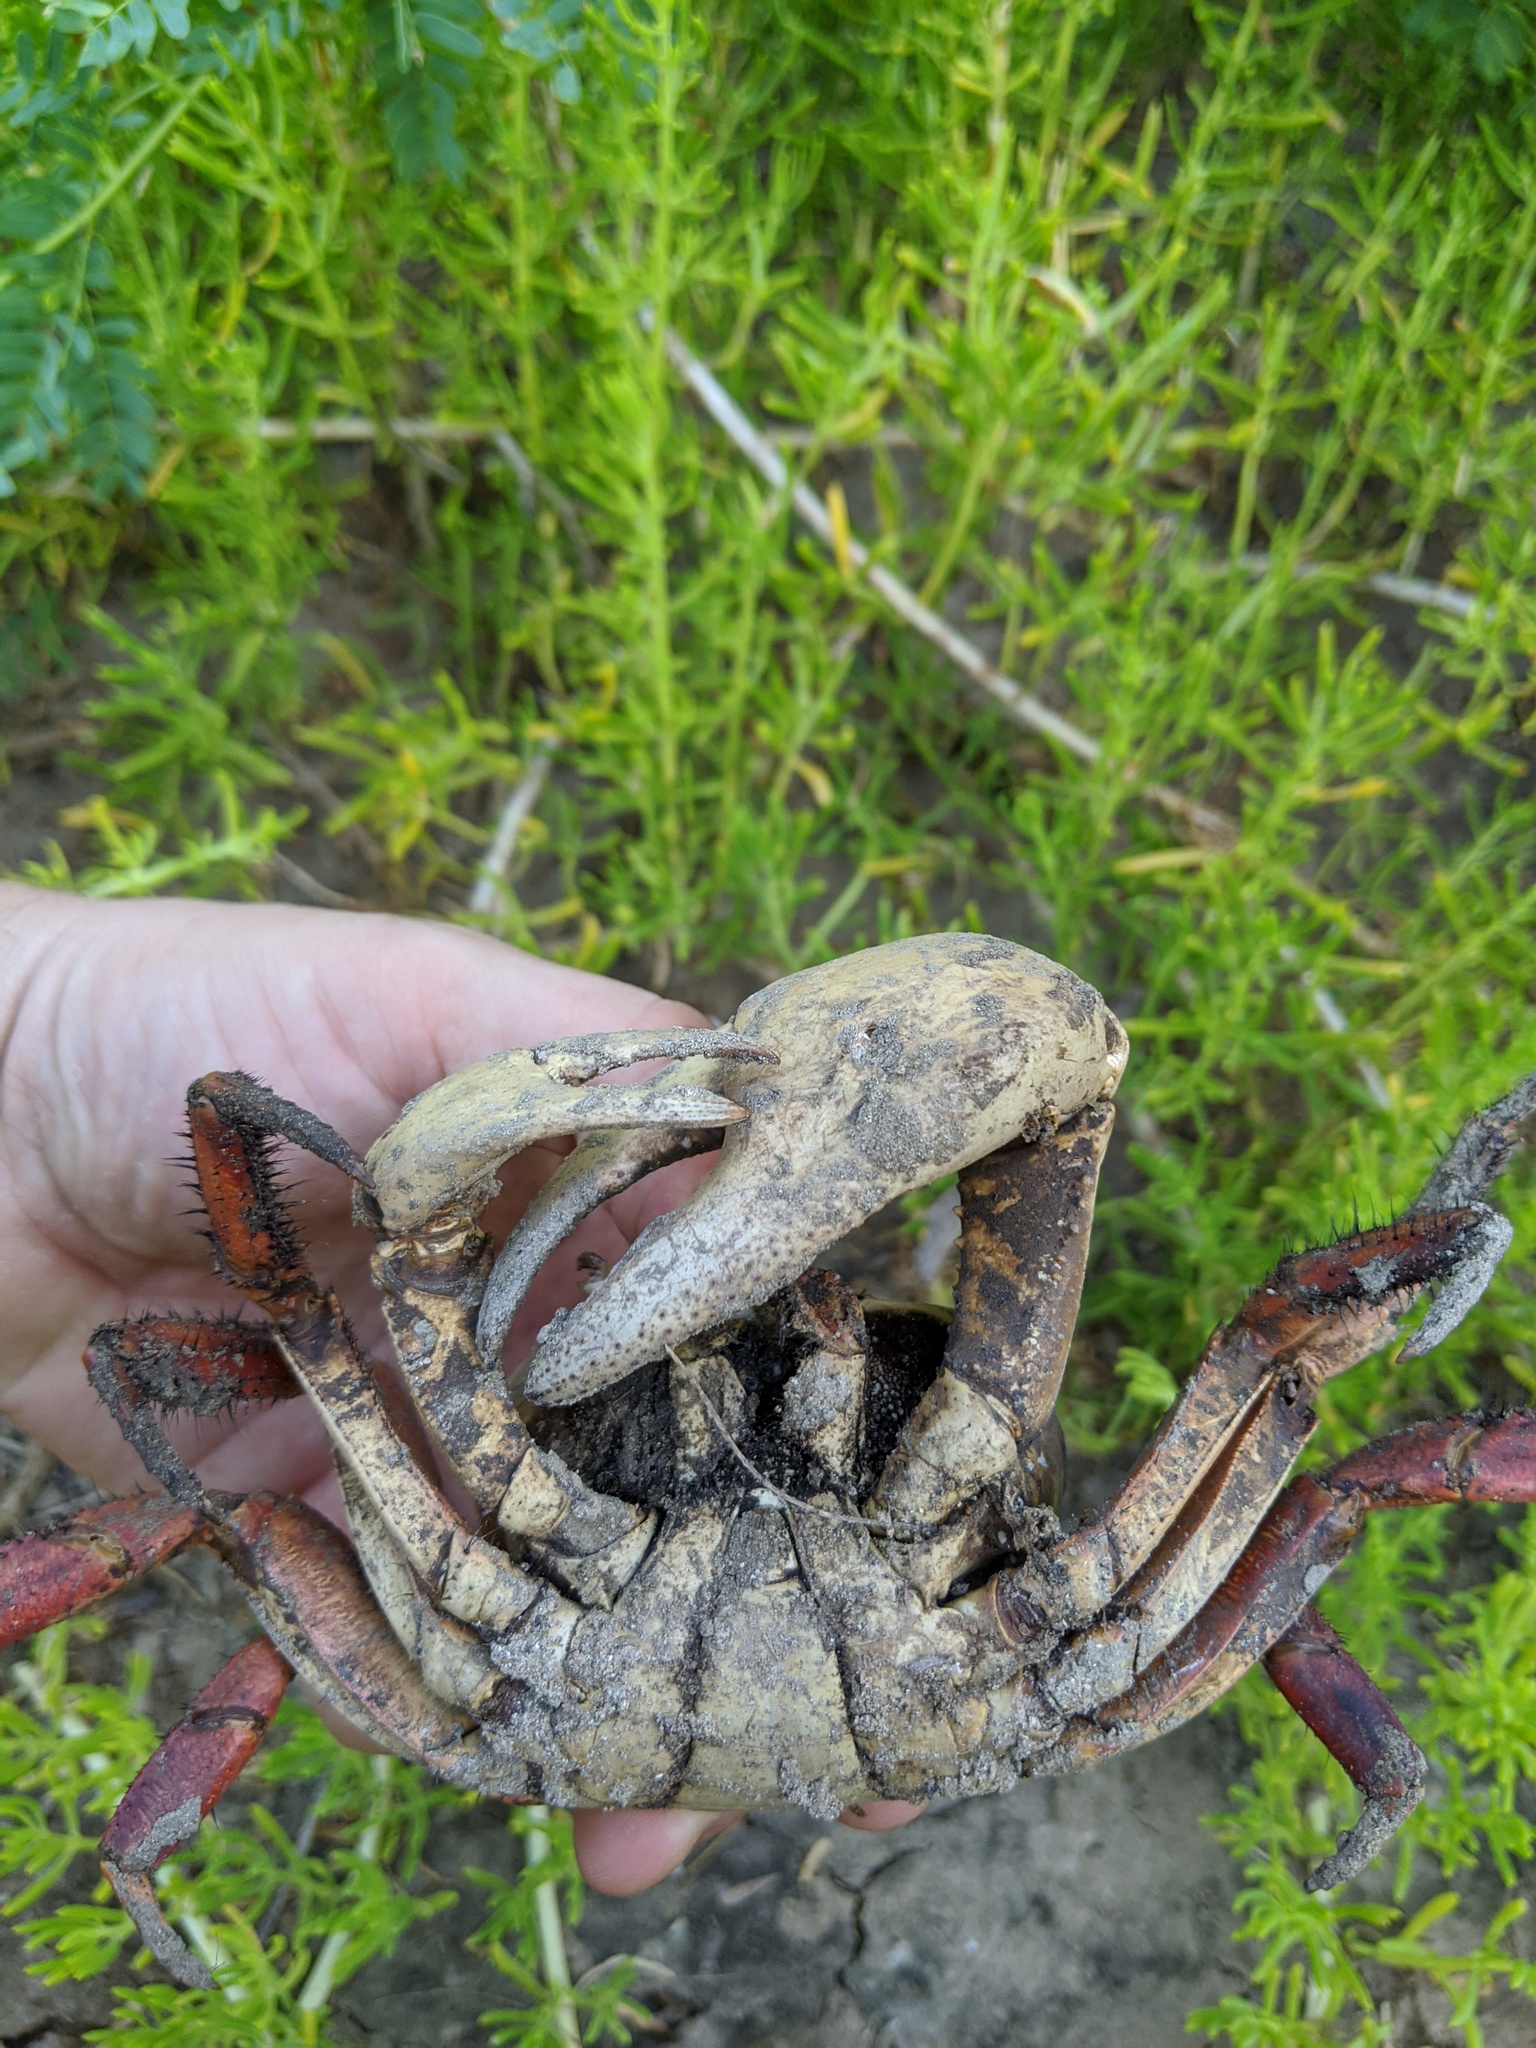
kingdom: Animalia
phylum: Arthropoda
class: Malacostraca
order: Decapoda
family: Gecarcinidae
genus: Cardisoma
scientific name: Cardisoma crassum
